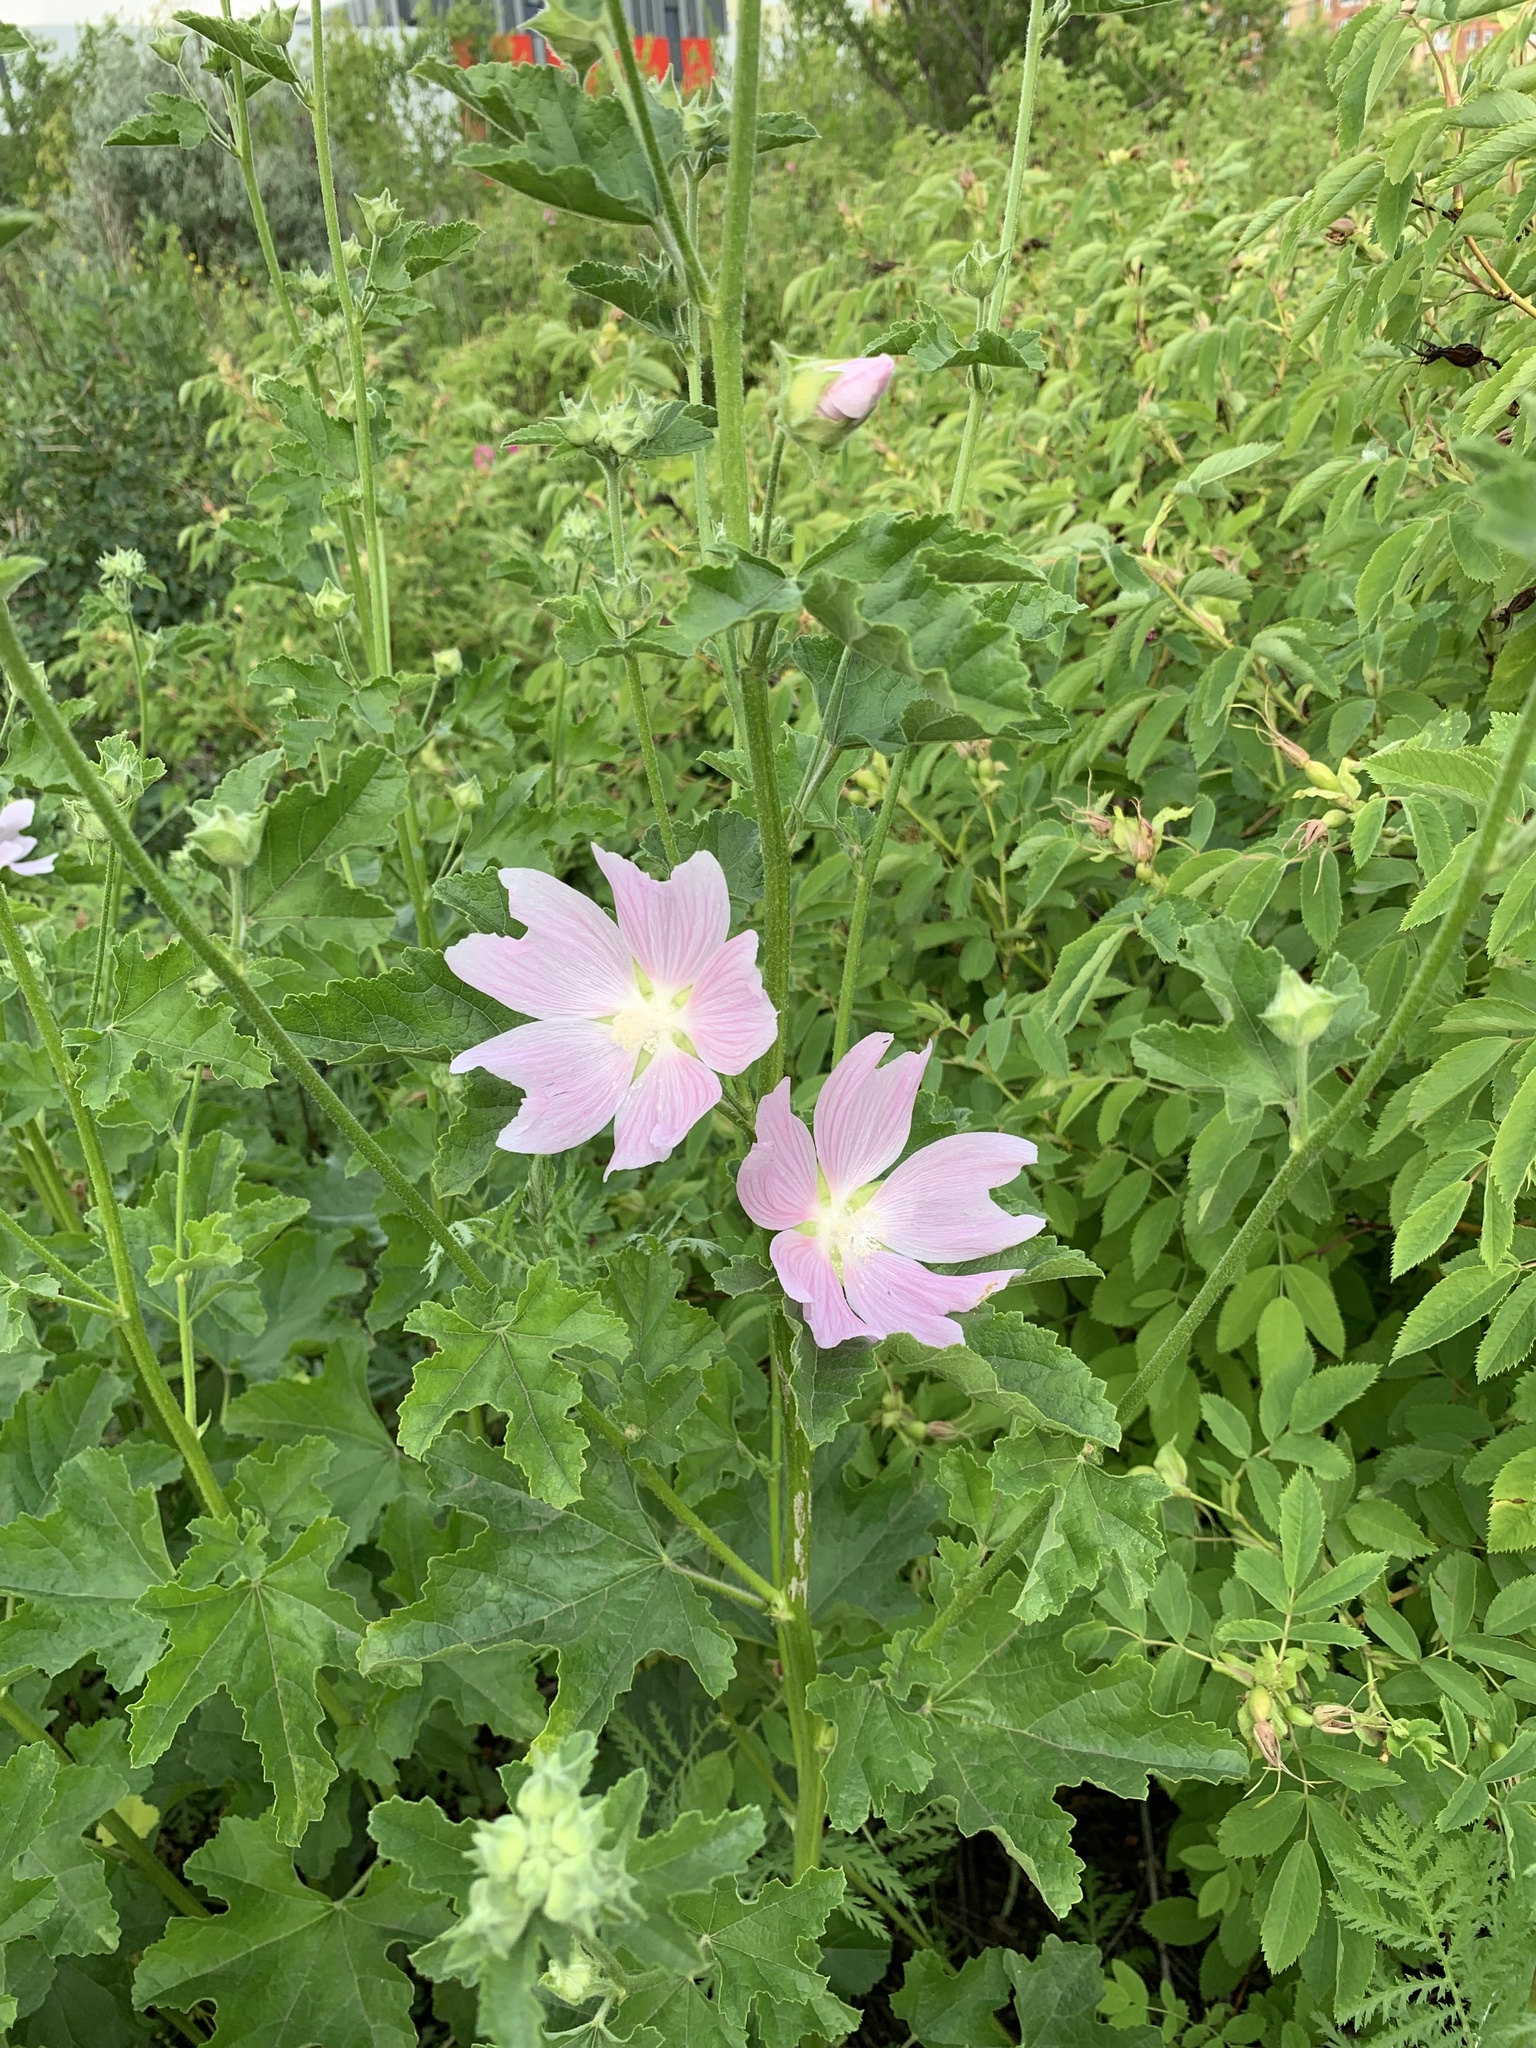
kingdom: Plantae
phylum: Tracheophyta
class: Magnoliopsida
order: Malvales
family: Malvaceae
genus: Malva
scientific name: Malva thuringiaca
